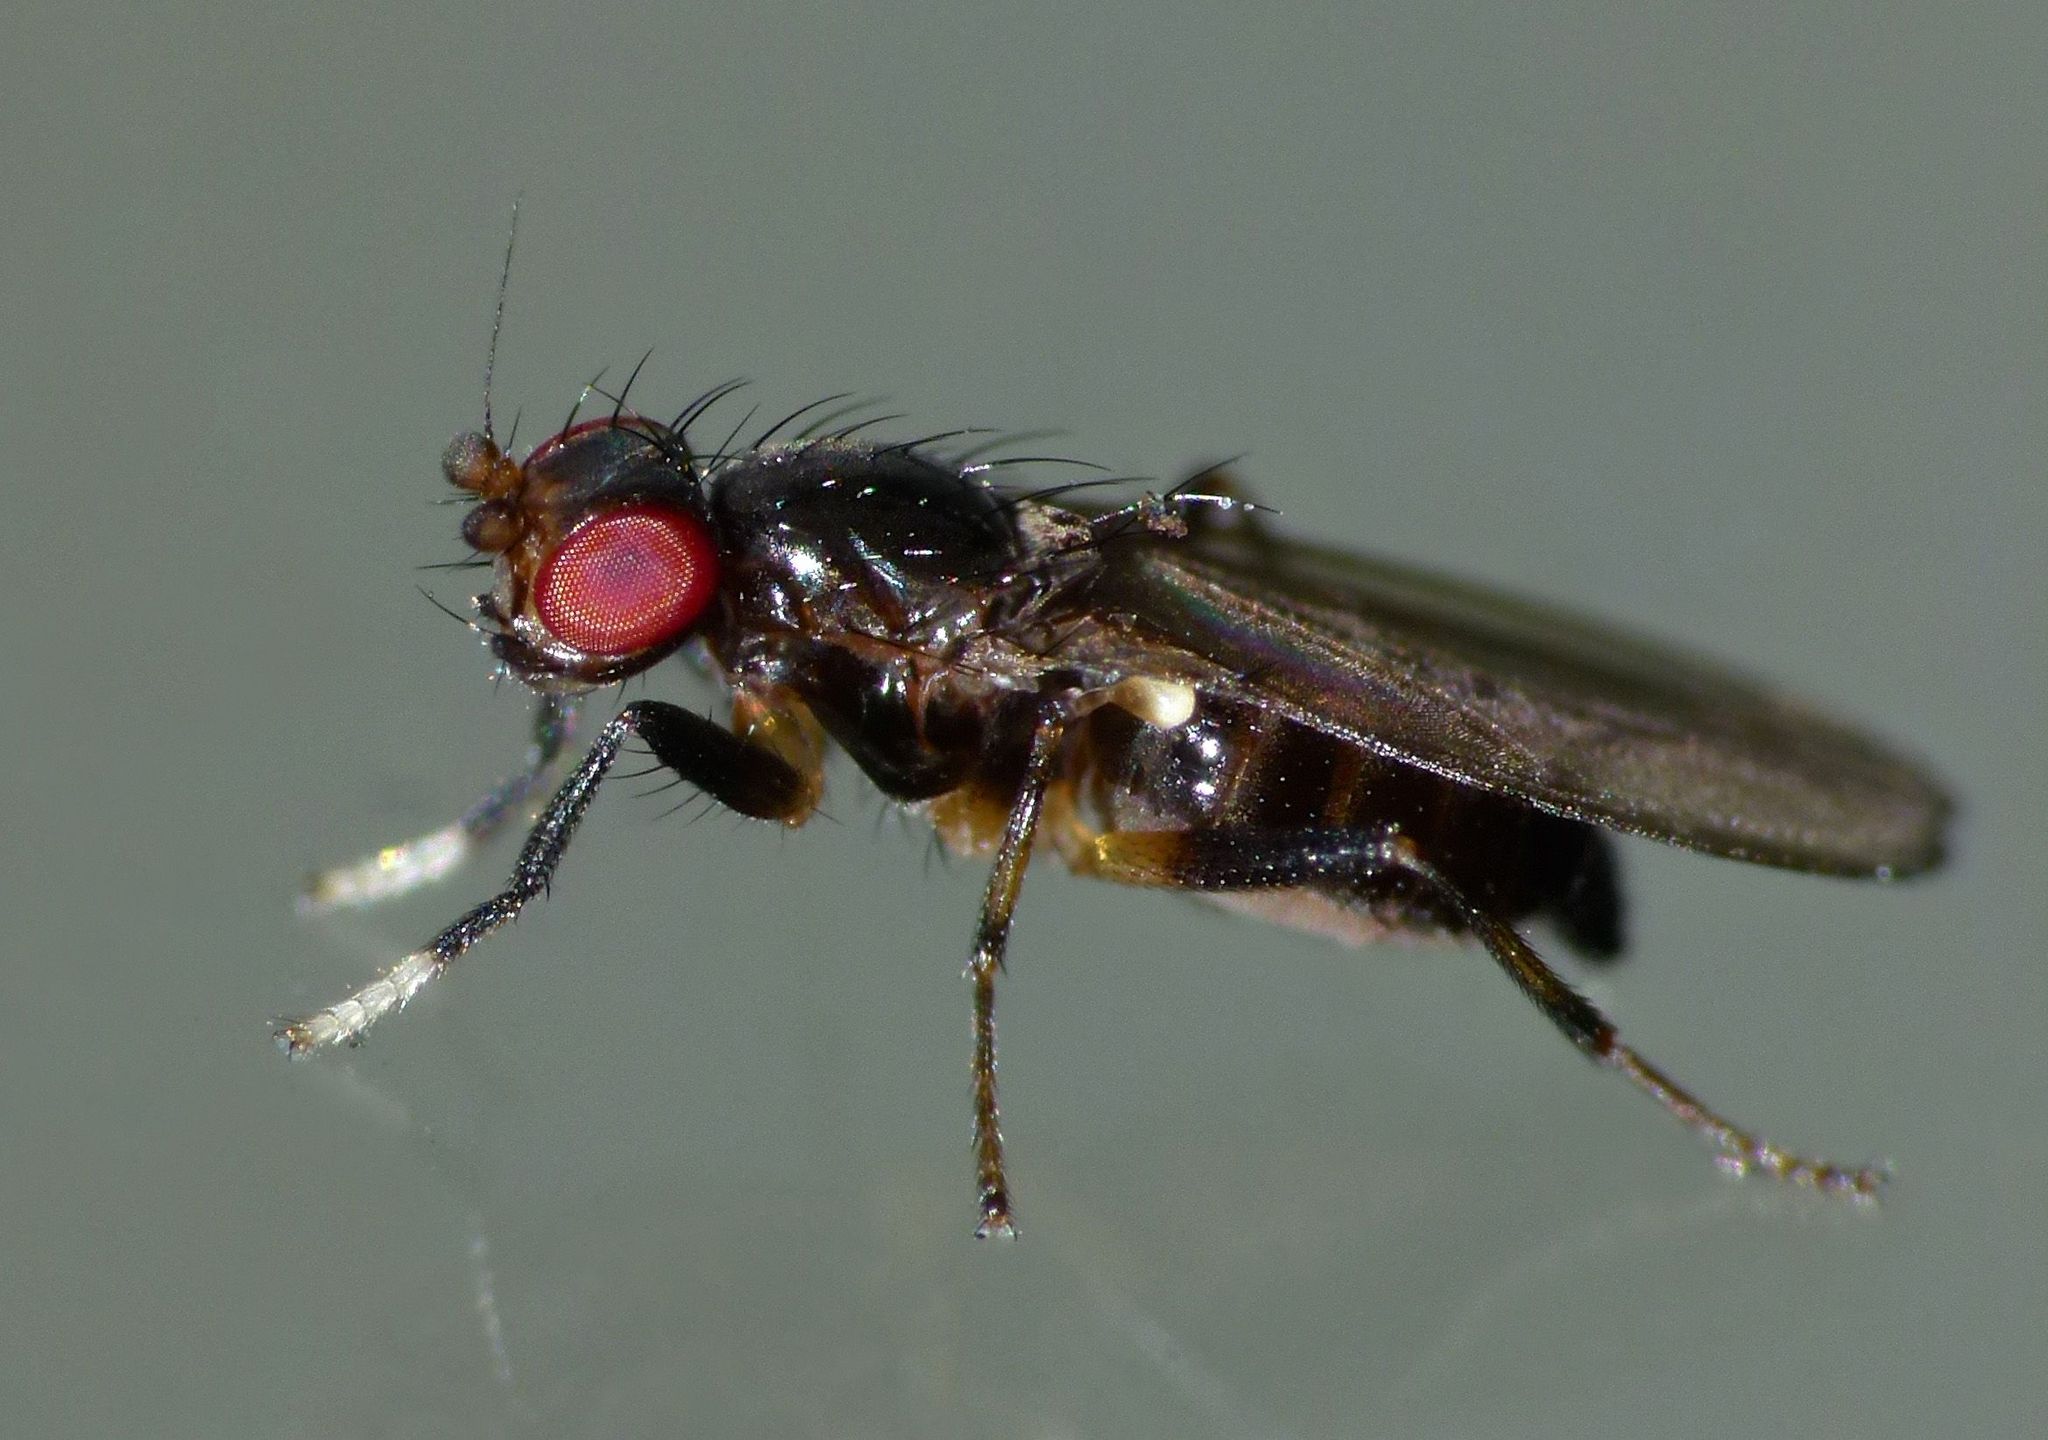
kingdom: Animalia
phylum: Arthropoda
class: Insecta
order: Diptera
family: Cypselosomatidae
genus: Pseudopomyza
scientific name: Pseudopomyza flavitarsis
